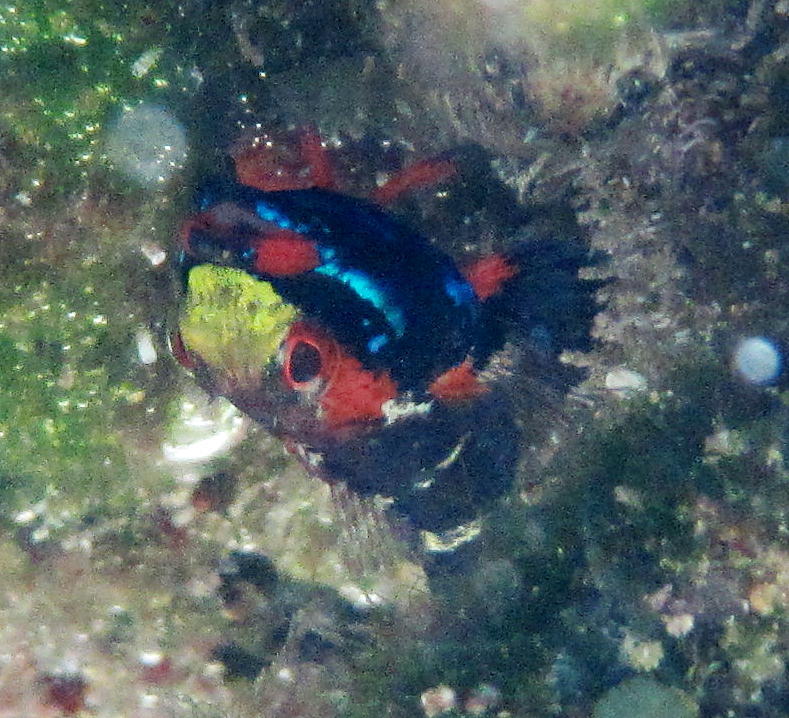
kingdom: Animalia
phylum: Chordata
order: Perciformes
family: Tripterygiidae
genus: Helcogramma
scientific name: Helcogramma rharhabe
